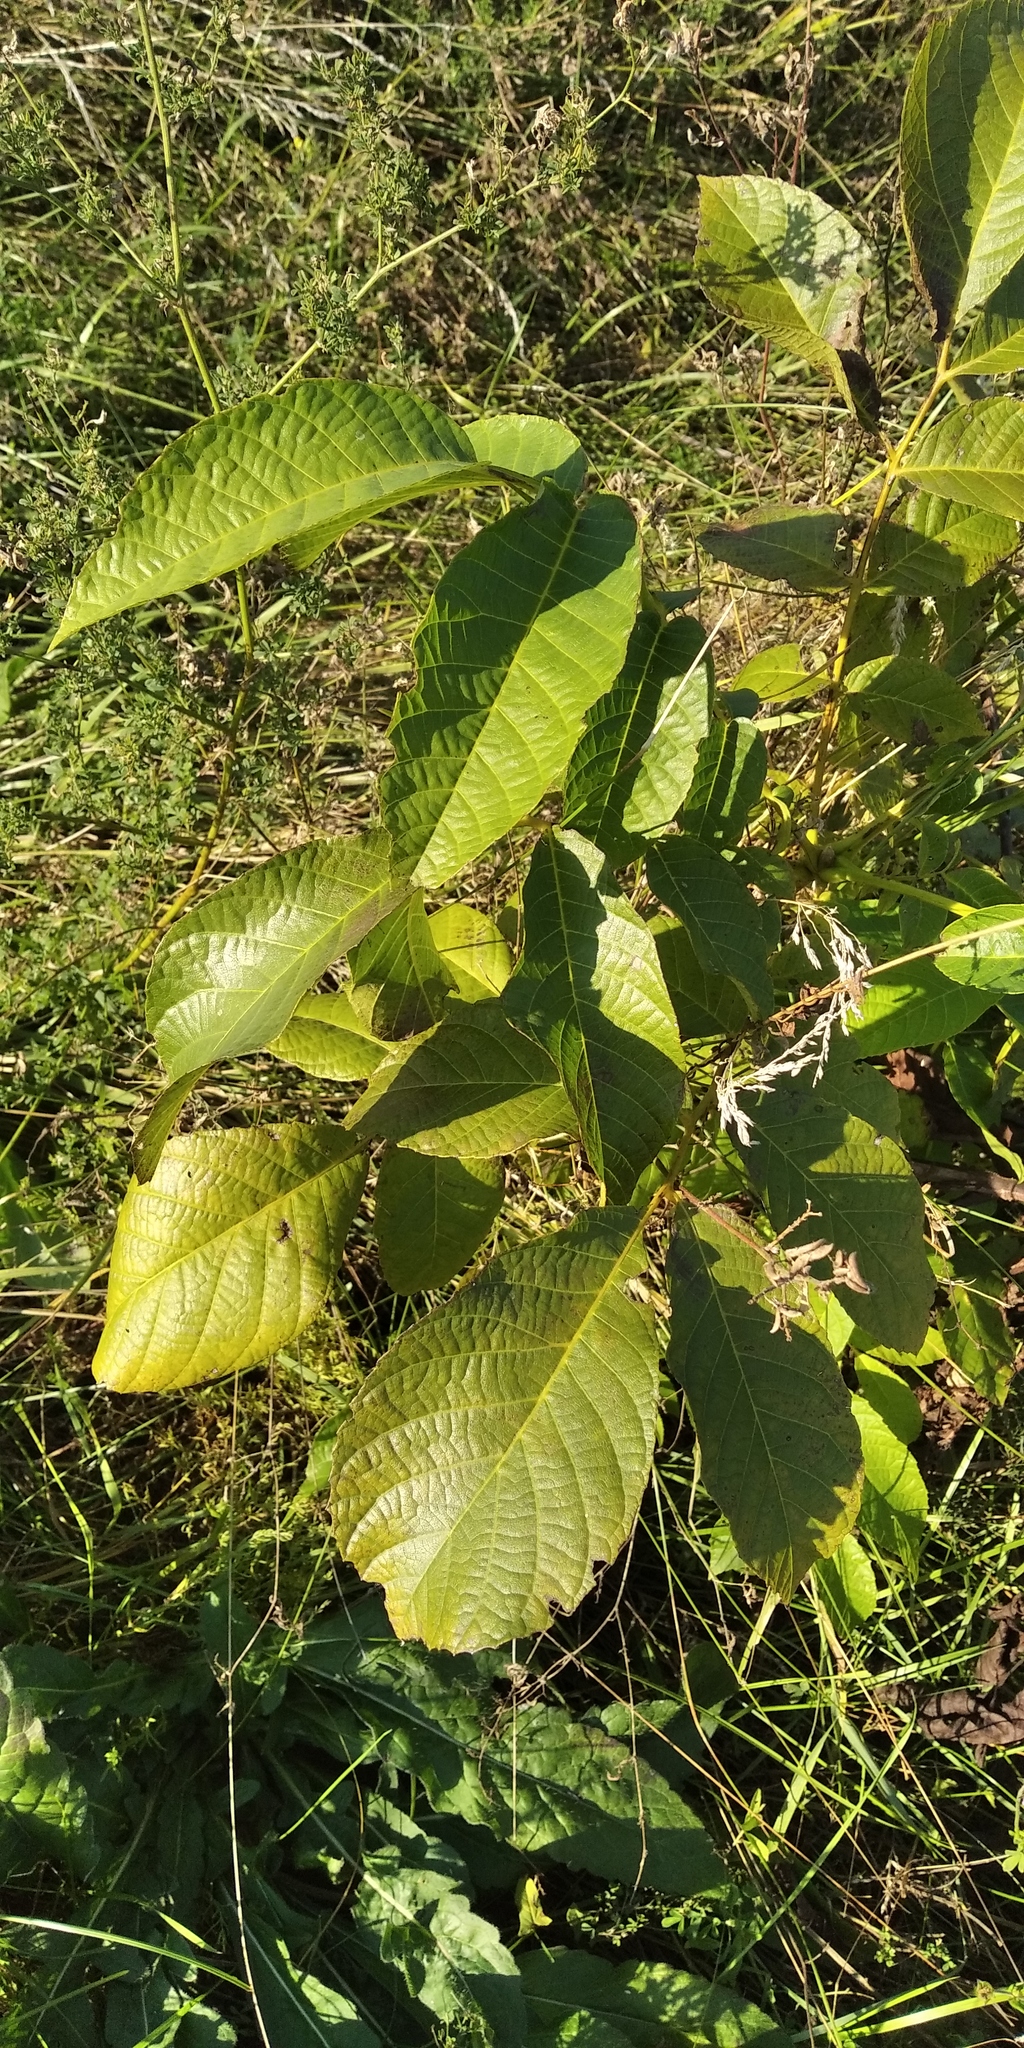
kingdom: Plantae
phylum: Tracheophyta
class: Magnoliopsida
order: Fagales
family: Juglandaceae
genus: Juglans
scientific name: Juglans regia
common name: Walnut
